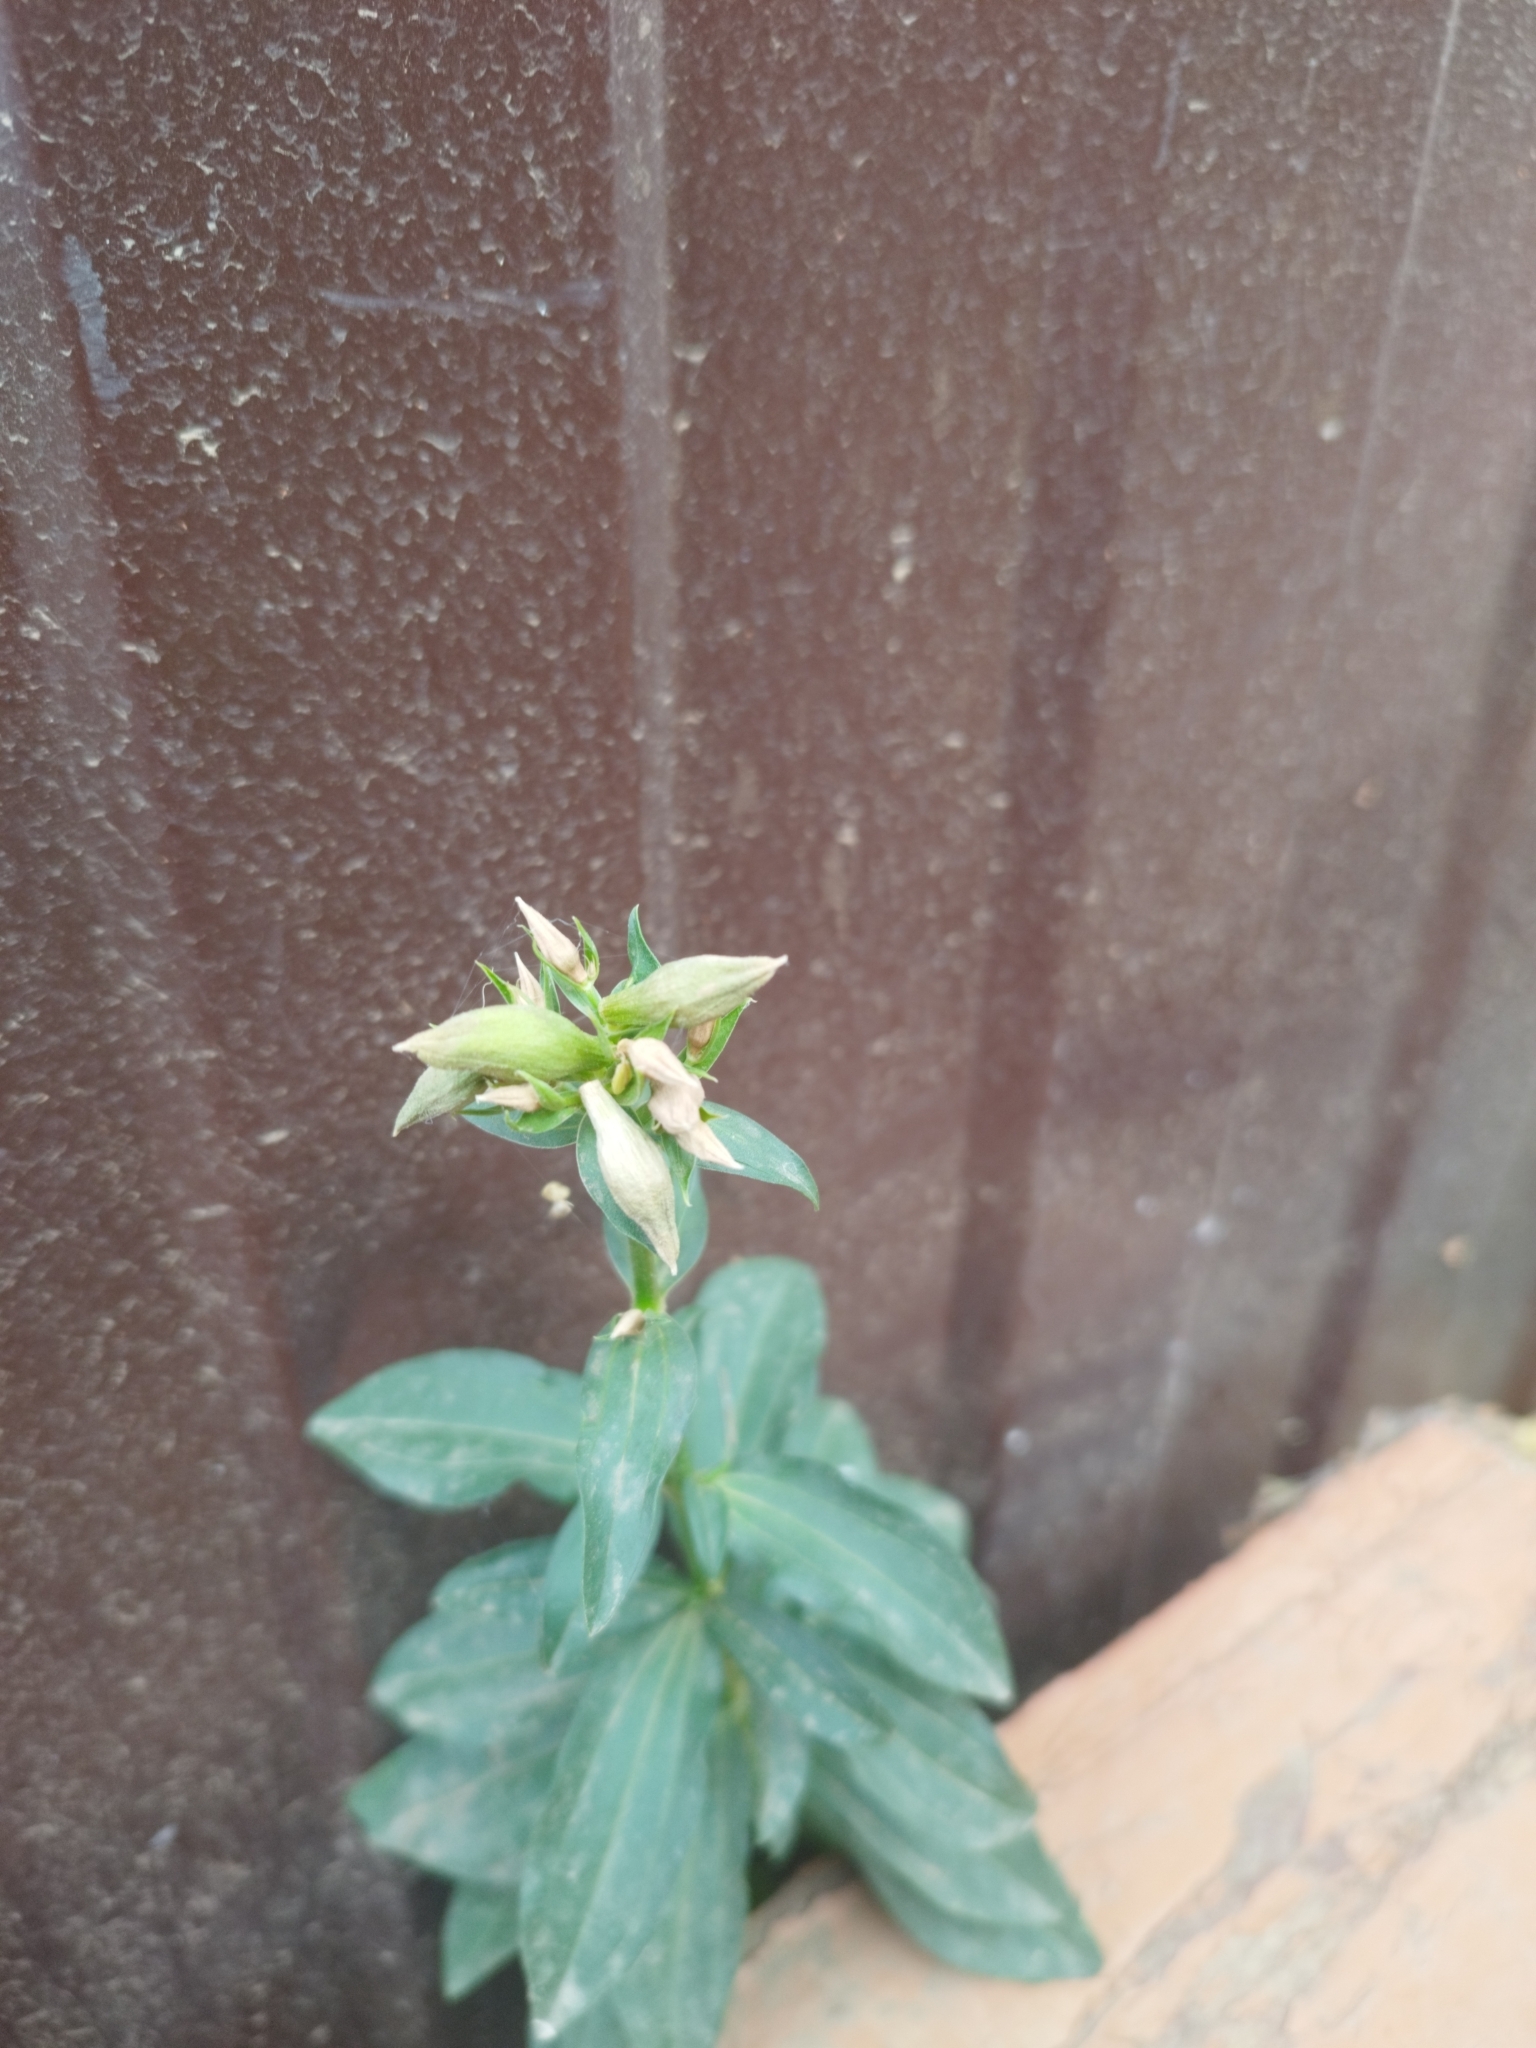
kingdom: Plantae
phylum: Tracheophyta
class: Magnoliopsida
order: Caryophyllales
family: Caryophyllaceae
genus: Saponaria
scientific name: Saponaria officinalis
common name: Soapwort
